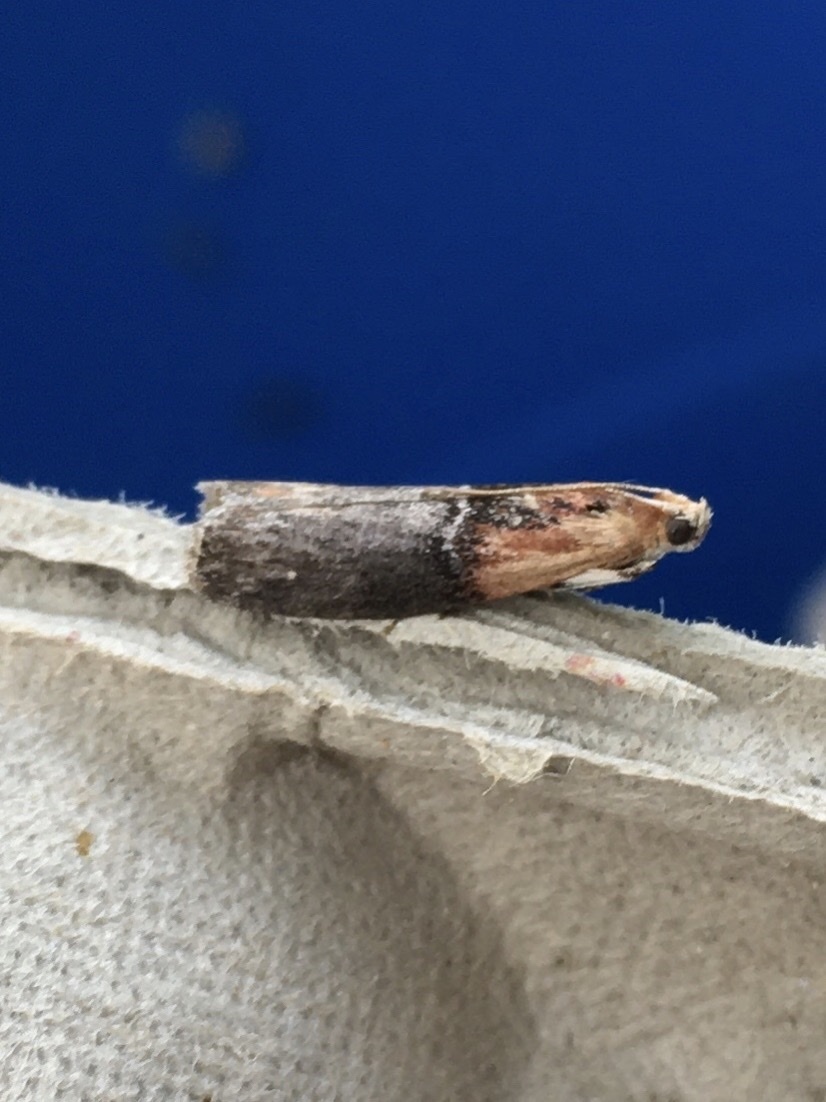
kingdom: Animalia
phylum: Arthropoda
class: Insecta
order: Lepidoptera
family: Pyralidae
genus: Sciota
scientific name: Sciota basilaris
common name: Yellow-shouldered leafroller
